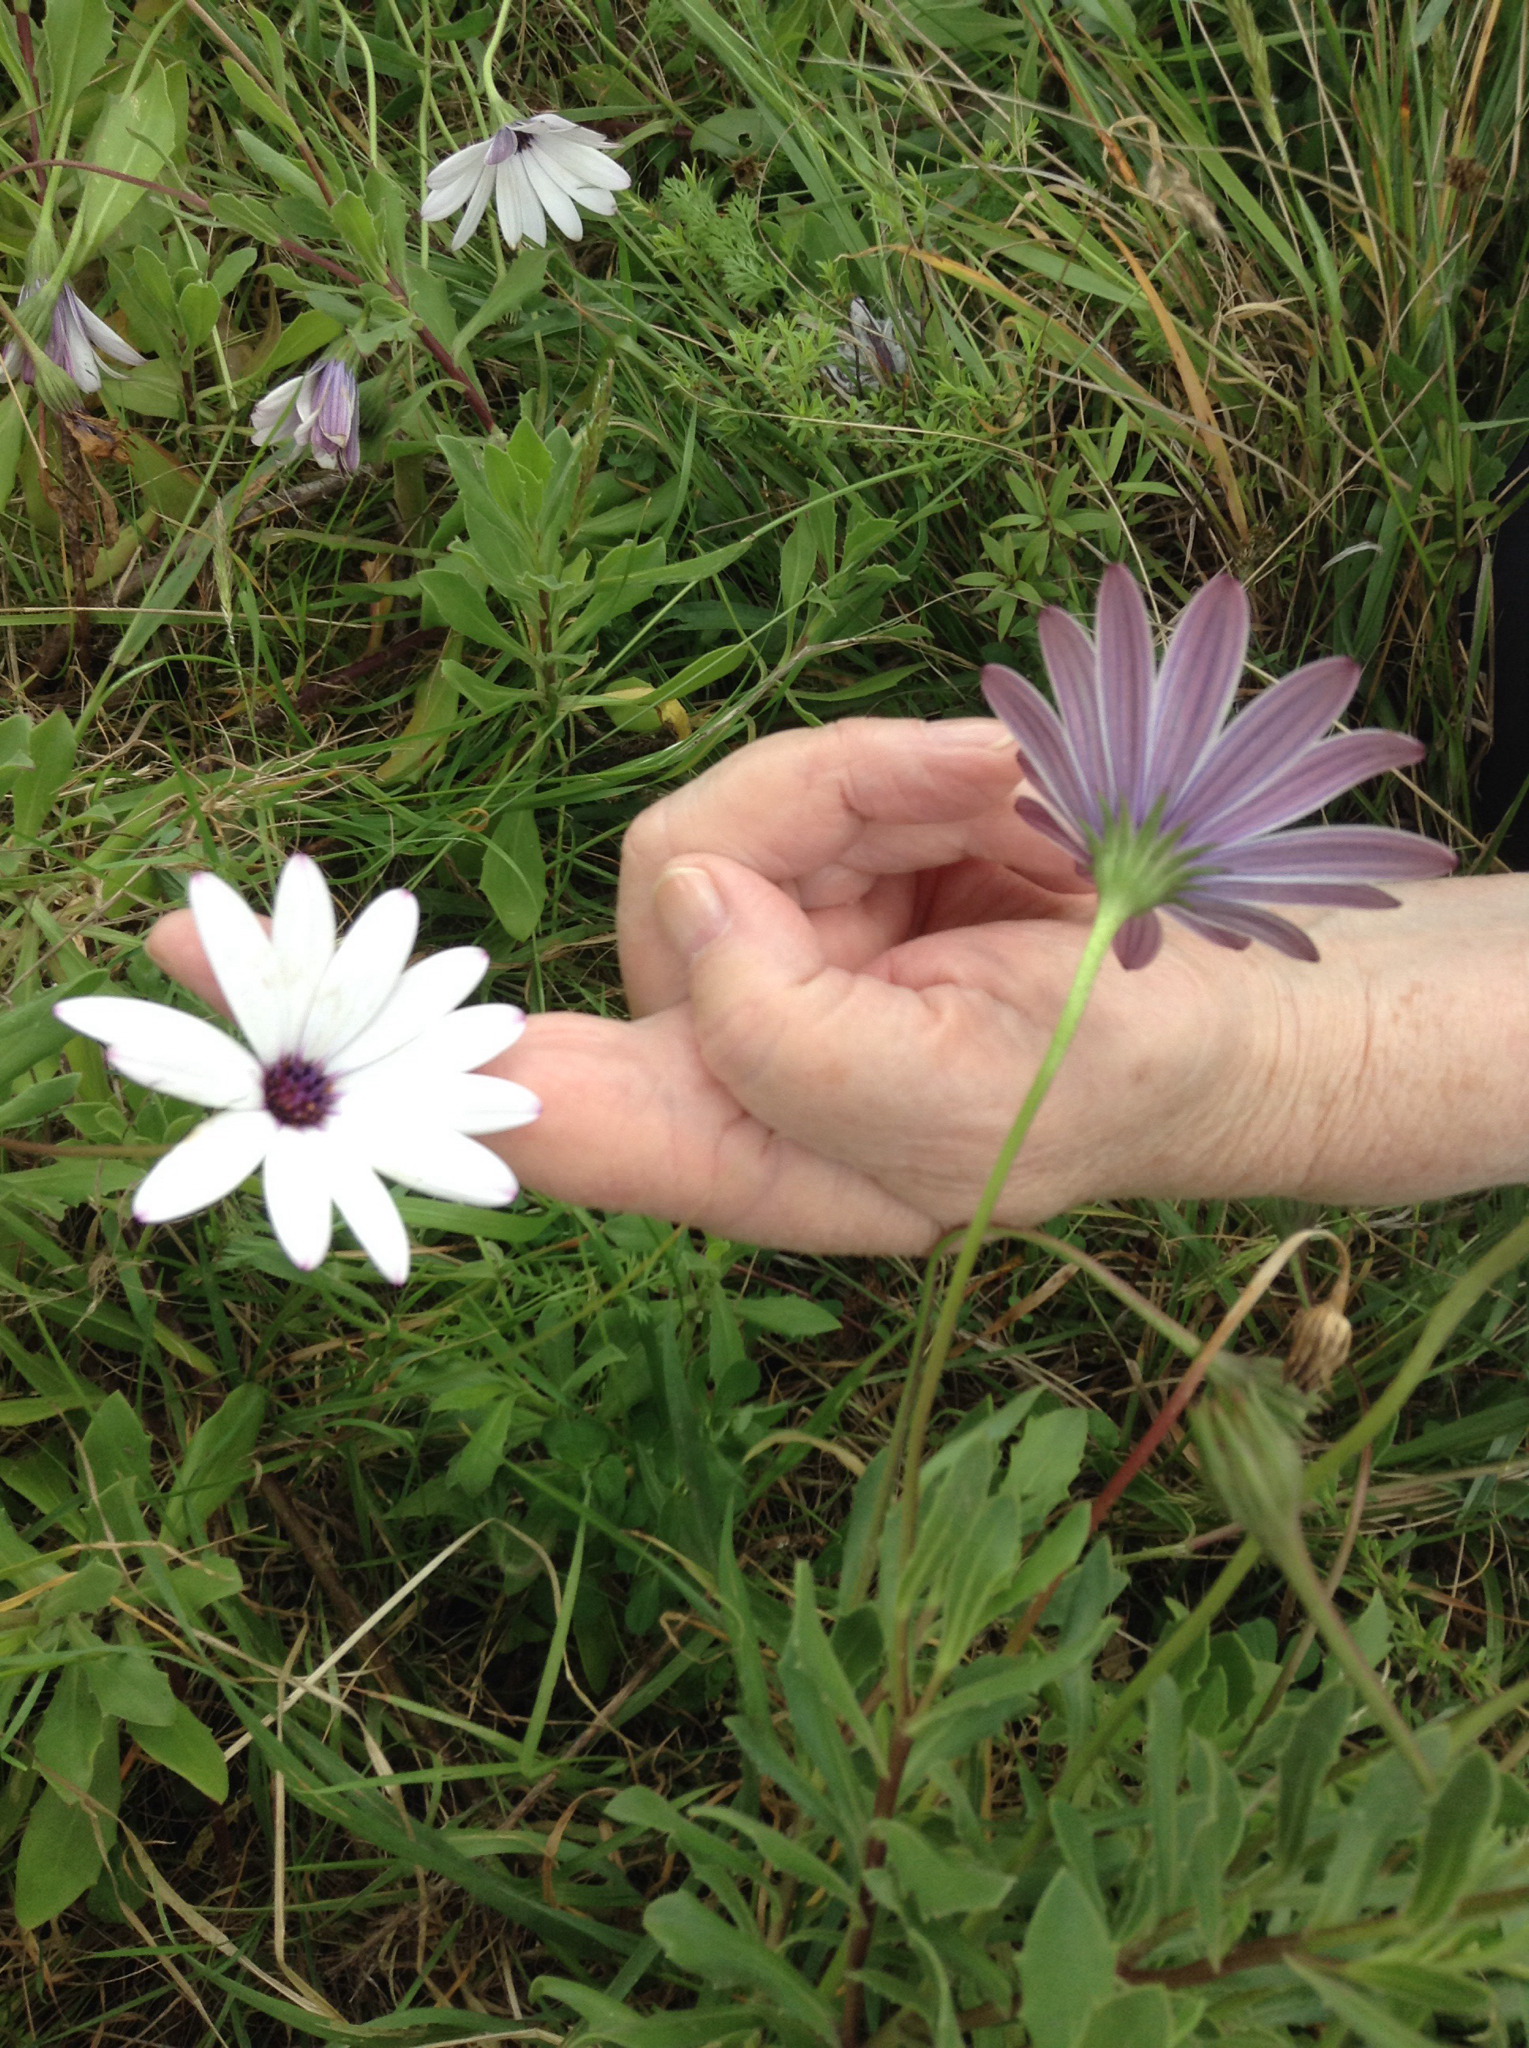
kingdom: Plantae
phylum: Tracheophyta
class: Magnoliopsida
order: Asterales
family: Asteraceae
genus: Dimorphotheca
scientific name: Dimorphotheca fruticosa
